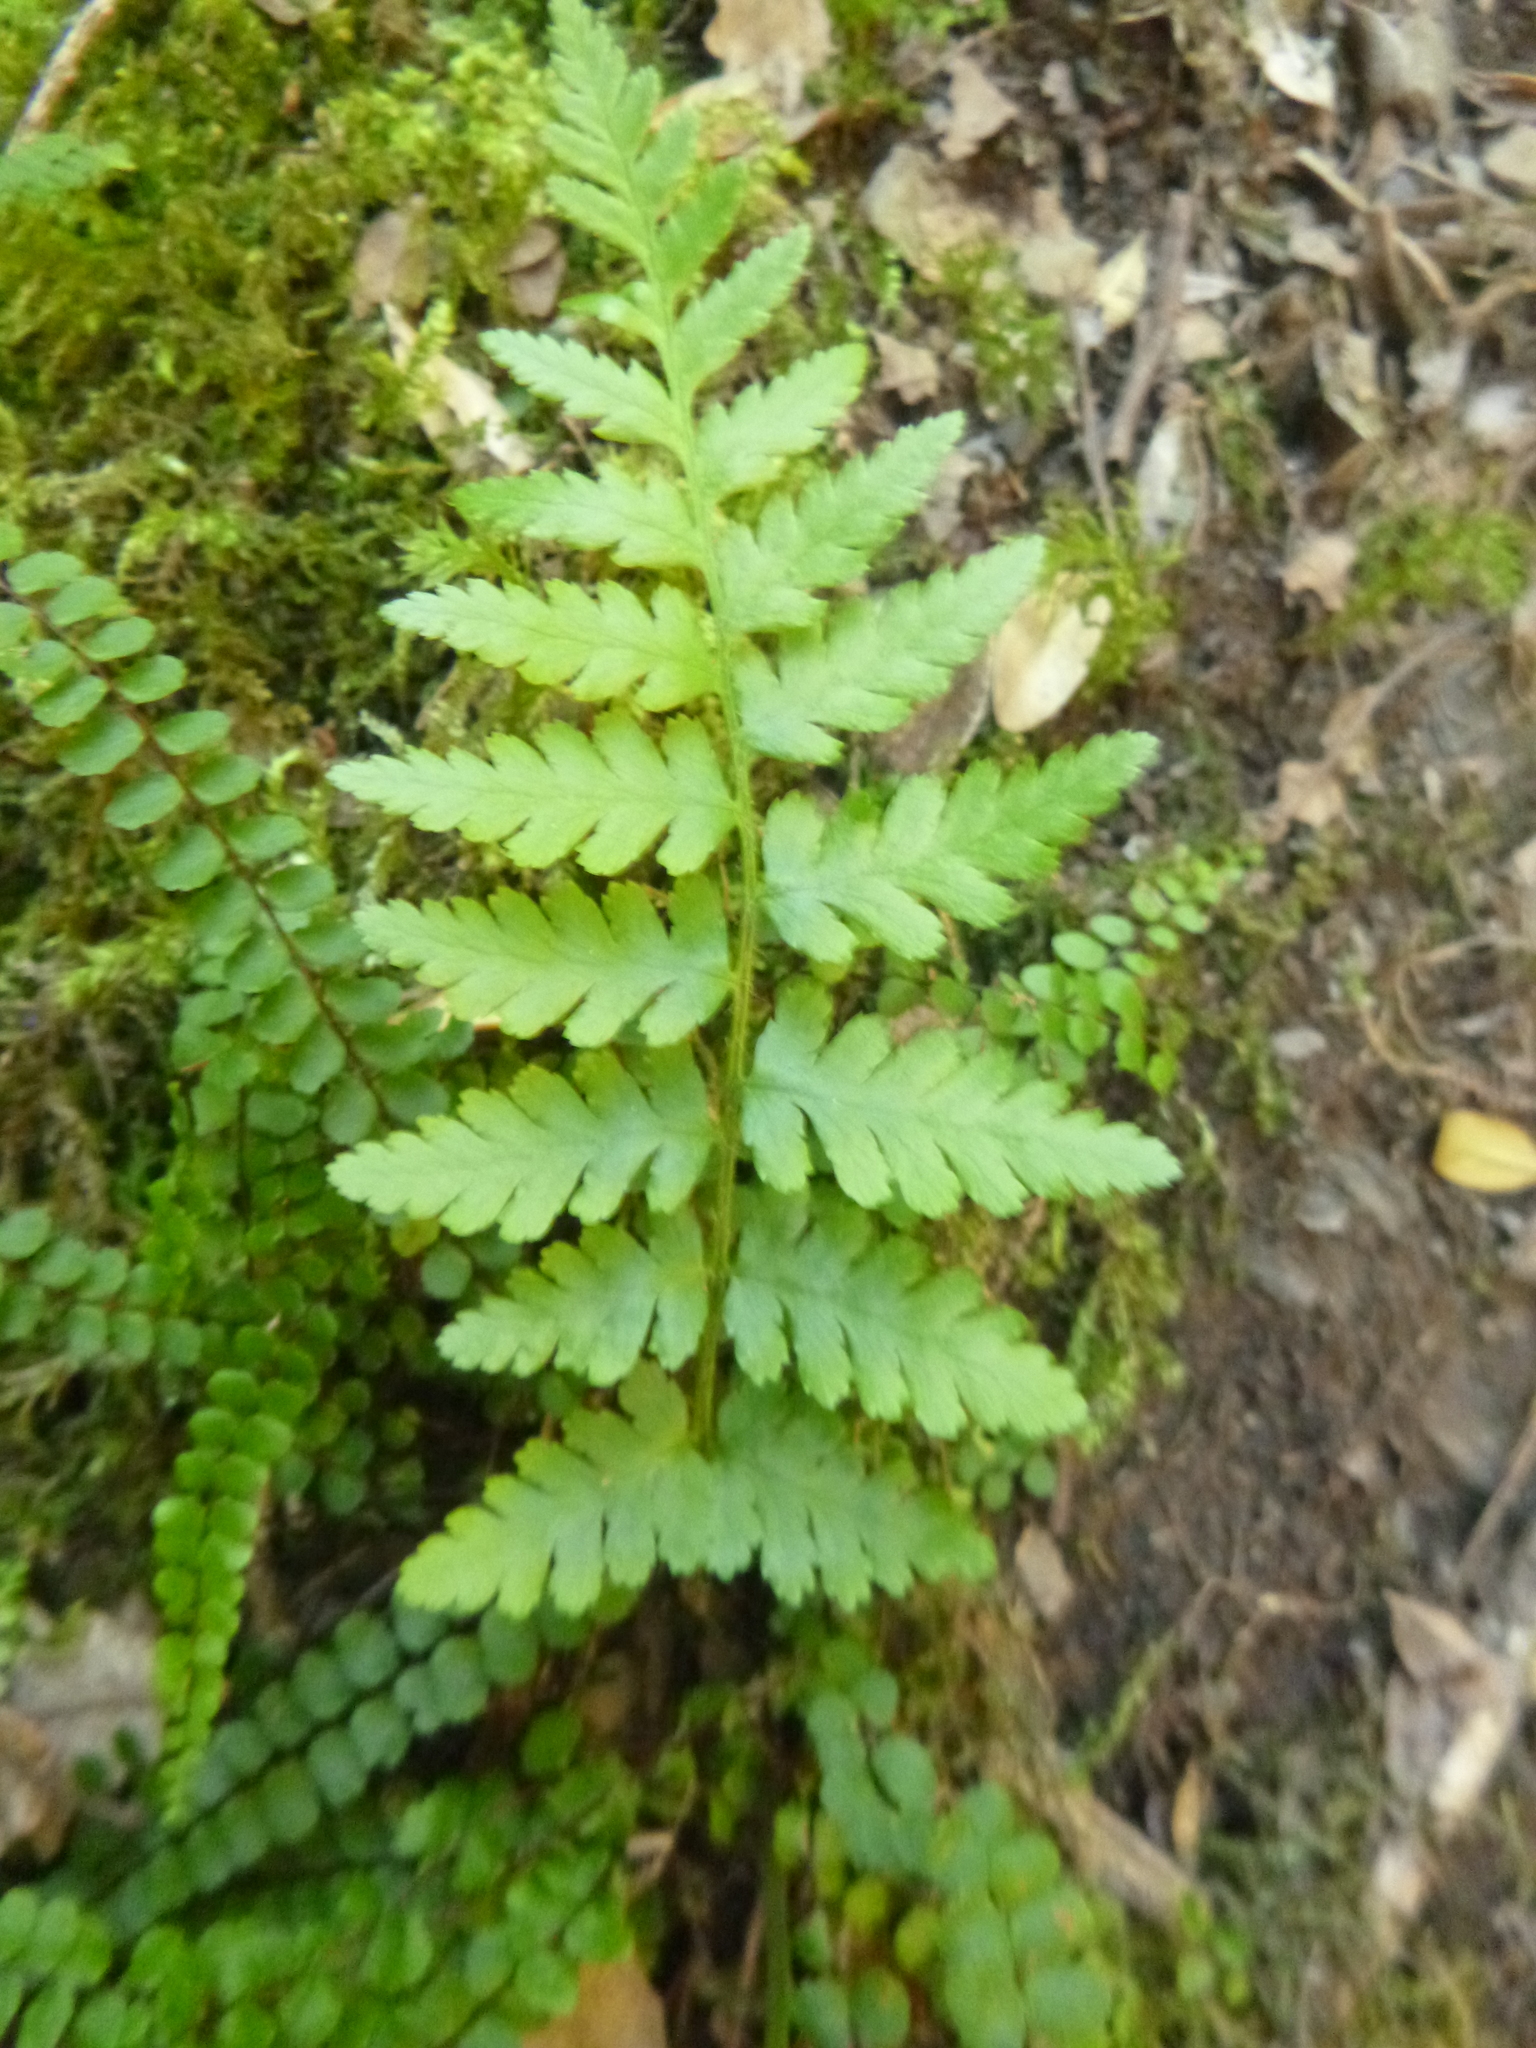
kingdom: Plantae
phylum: Tracheophyta
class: Polypodiopsida
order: Polypodiales
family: Aspleniaceae
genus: Asplenium
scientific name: Asplenium trichomanes
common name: Maidenhair spleenwort
